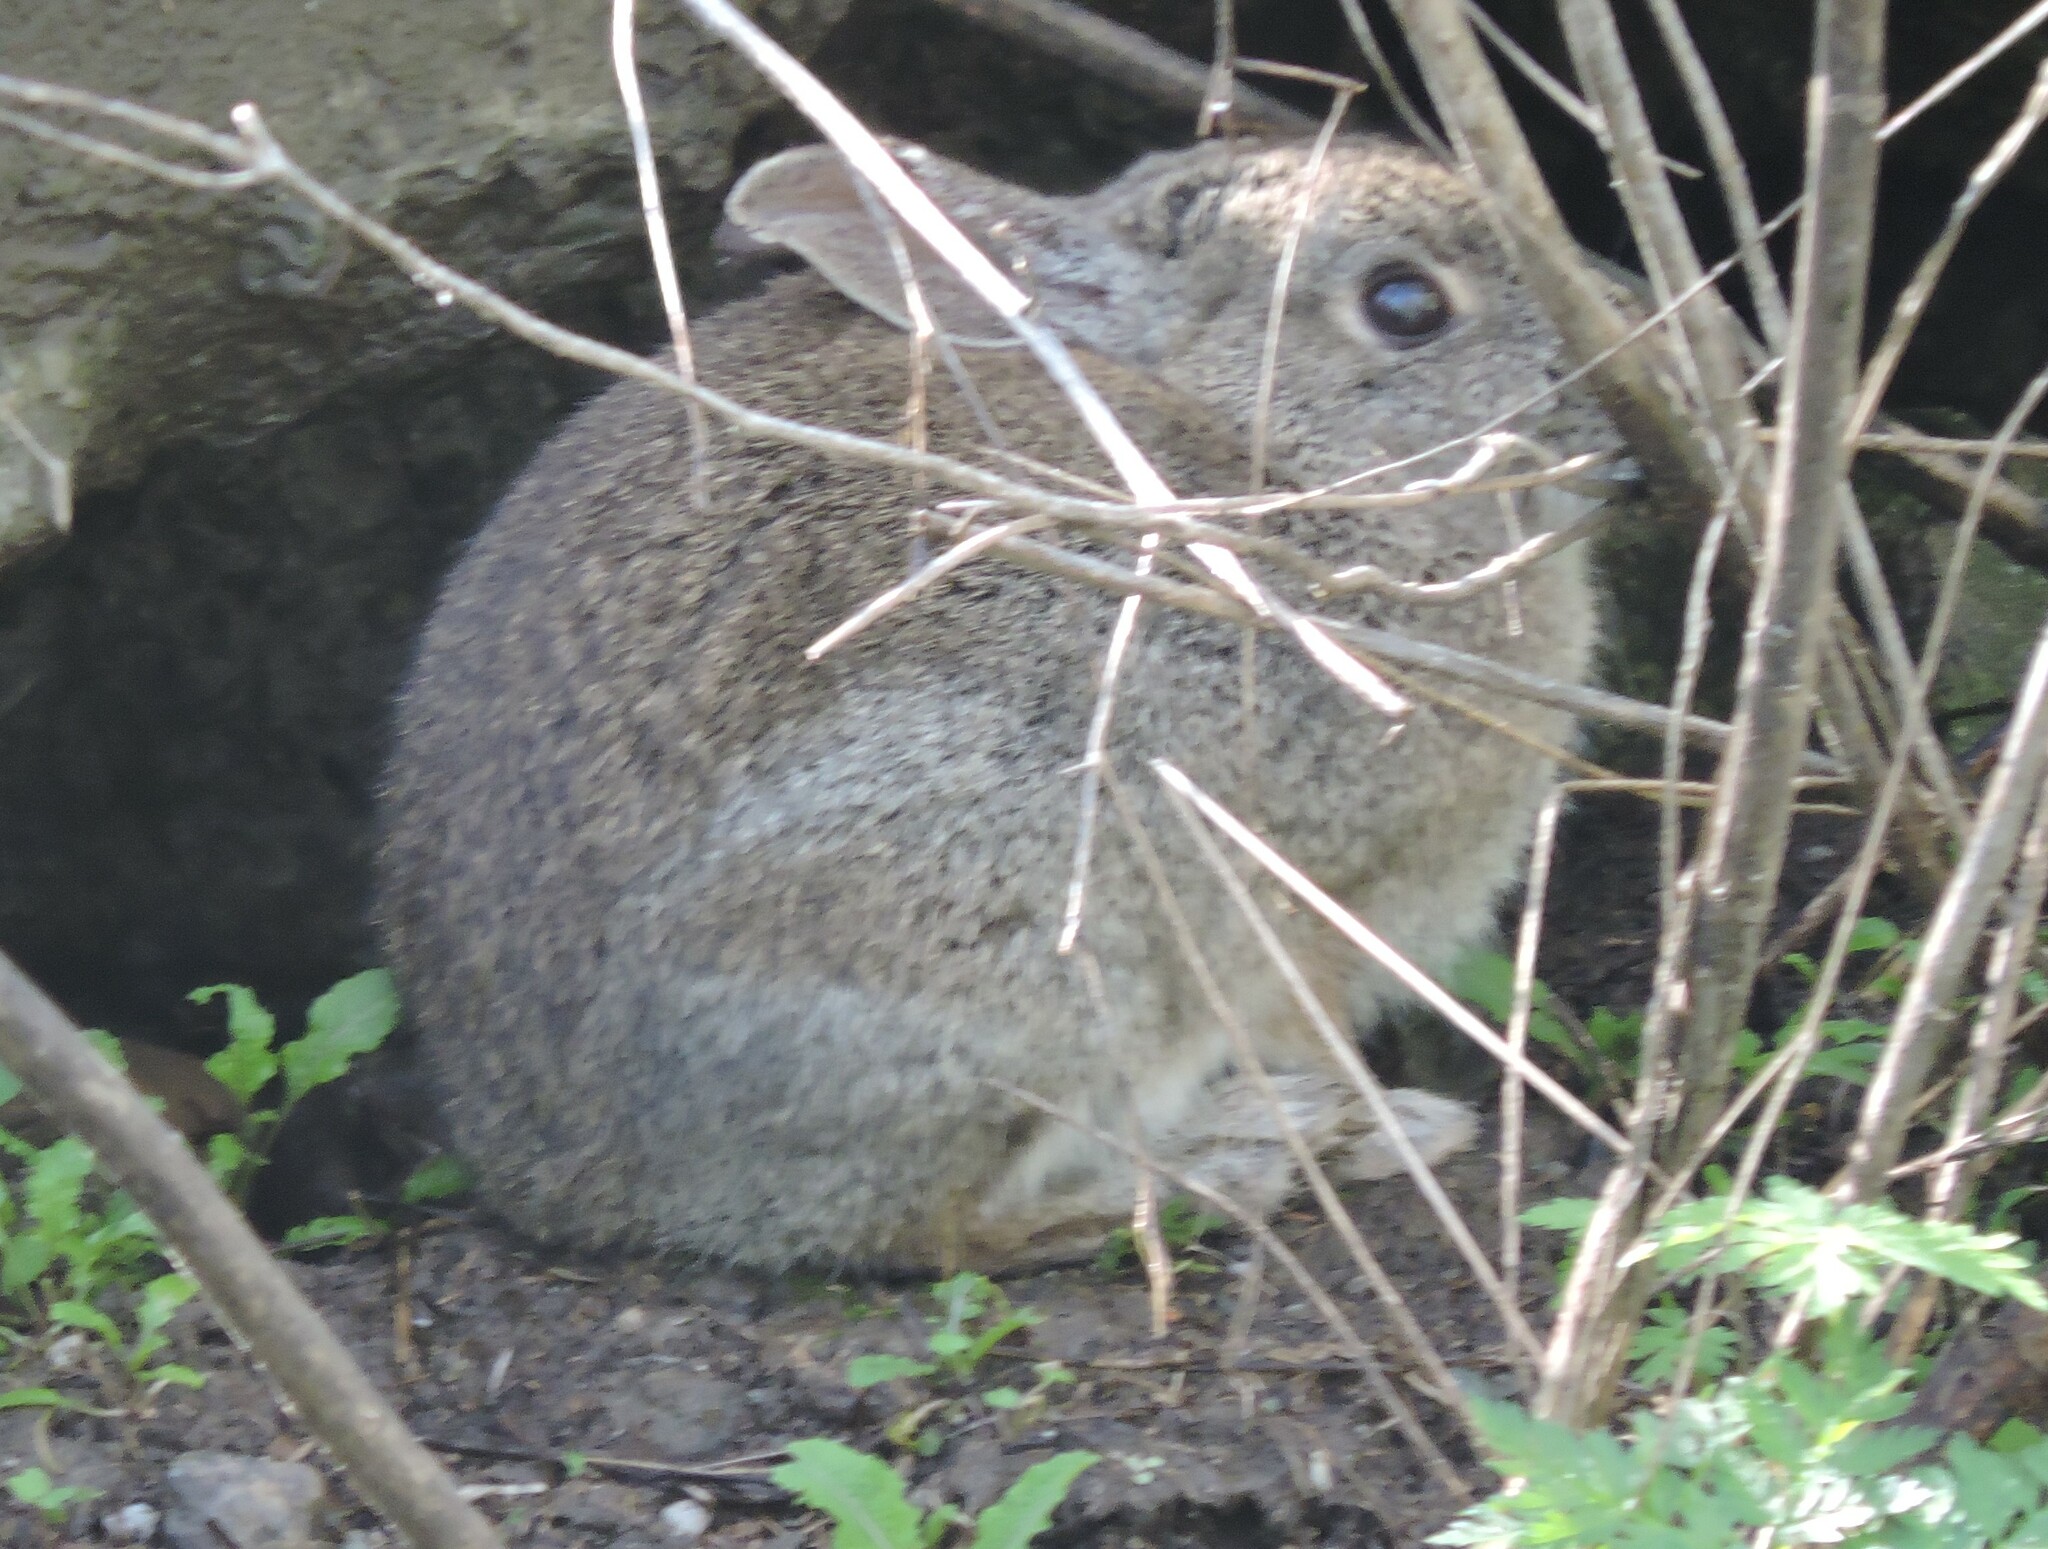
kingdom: Animalia
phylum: Chordata
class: Mammalia
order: Lagomorpha
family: Leporidae
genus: Sylvilagus
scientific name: Sylvilagus bachmani
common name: Brush rabbit
